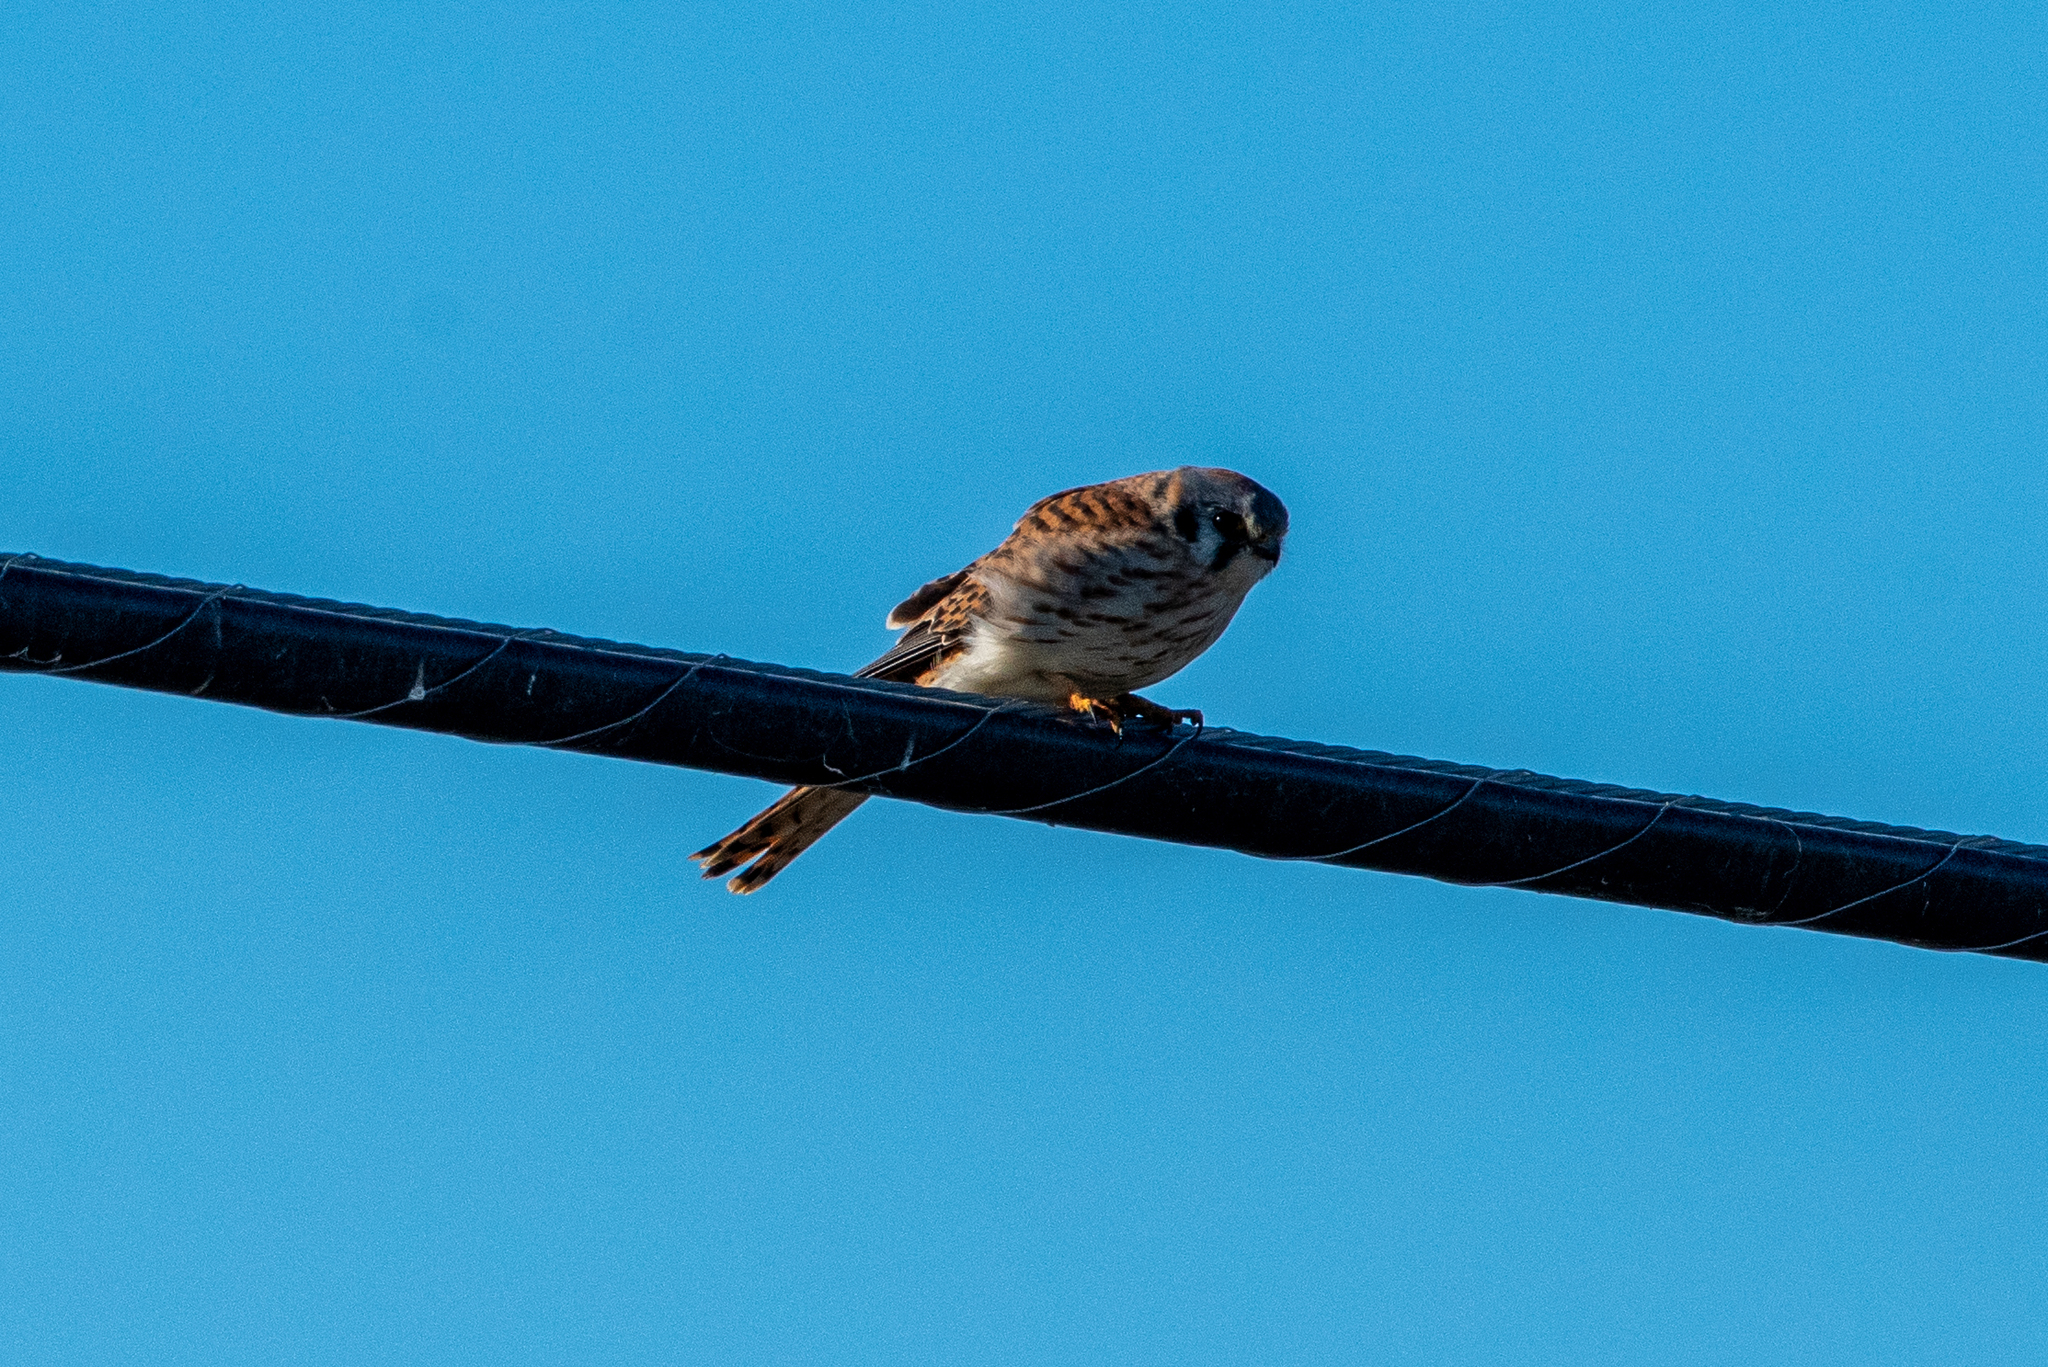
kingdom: Animalia
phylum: Chordata
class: Aves
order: Falconiformes
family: Falconidae
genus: Falco
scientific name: Falco sparverius
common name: American kestrel
